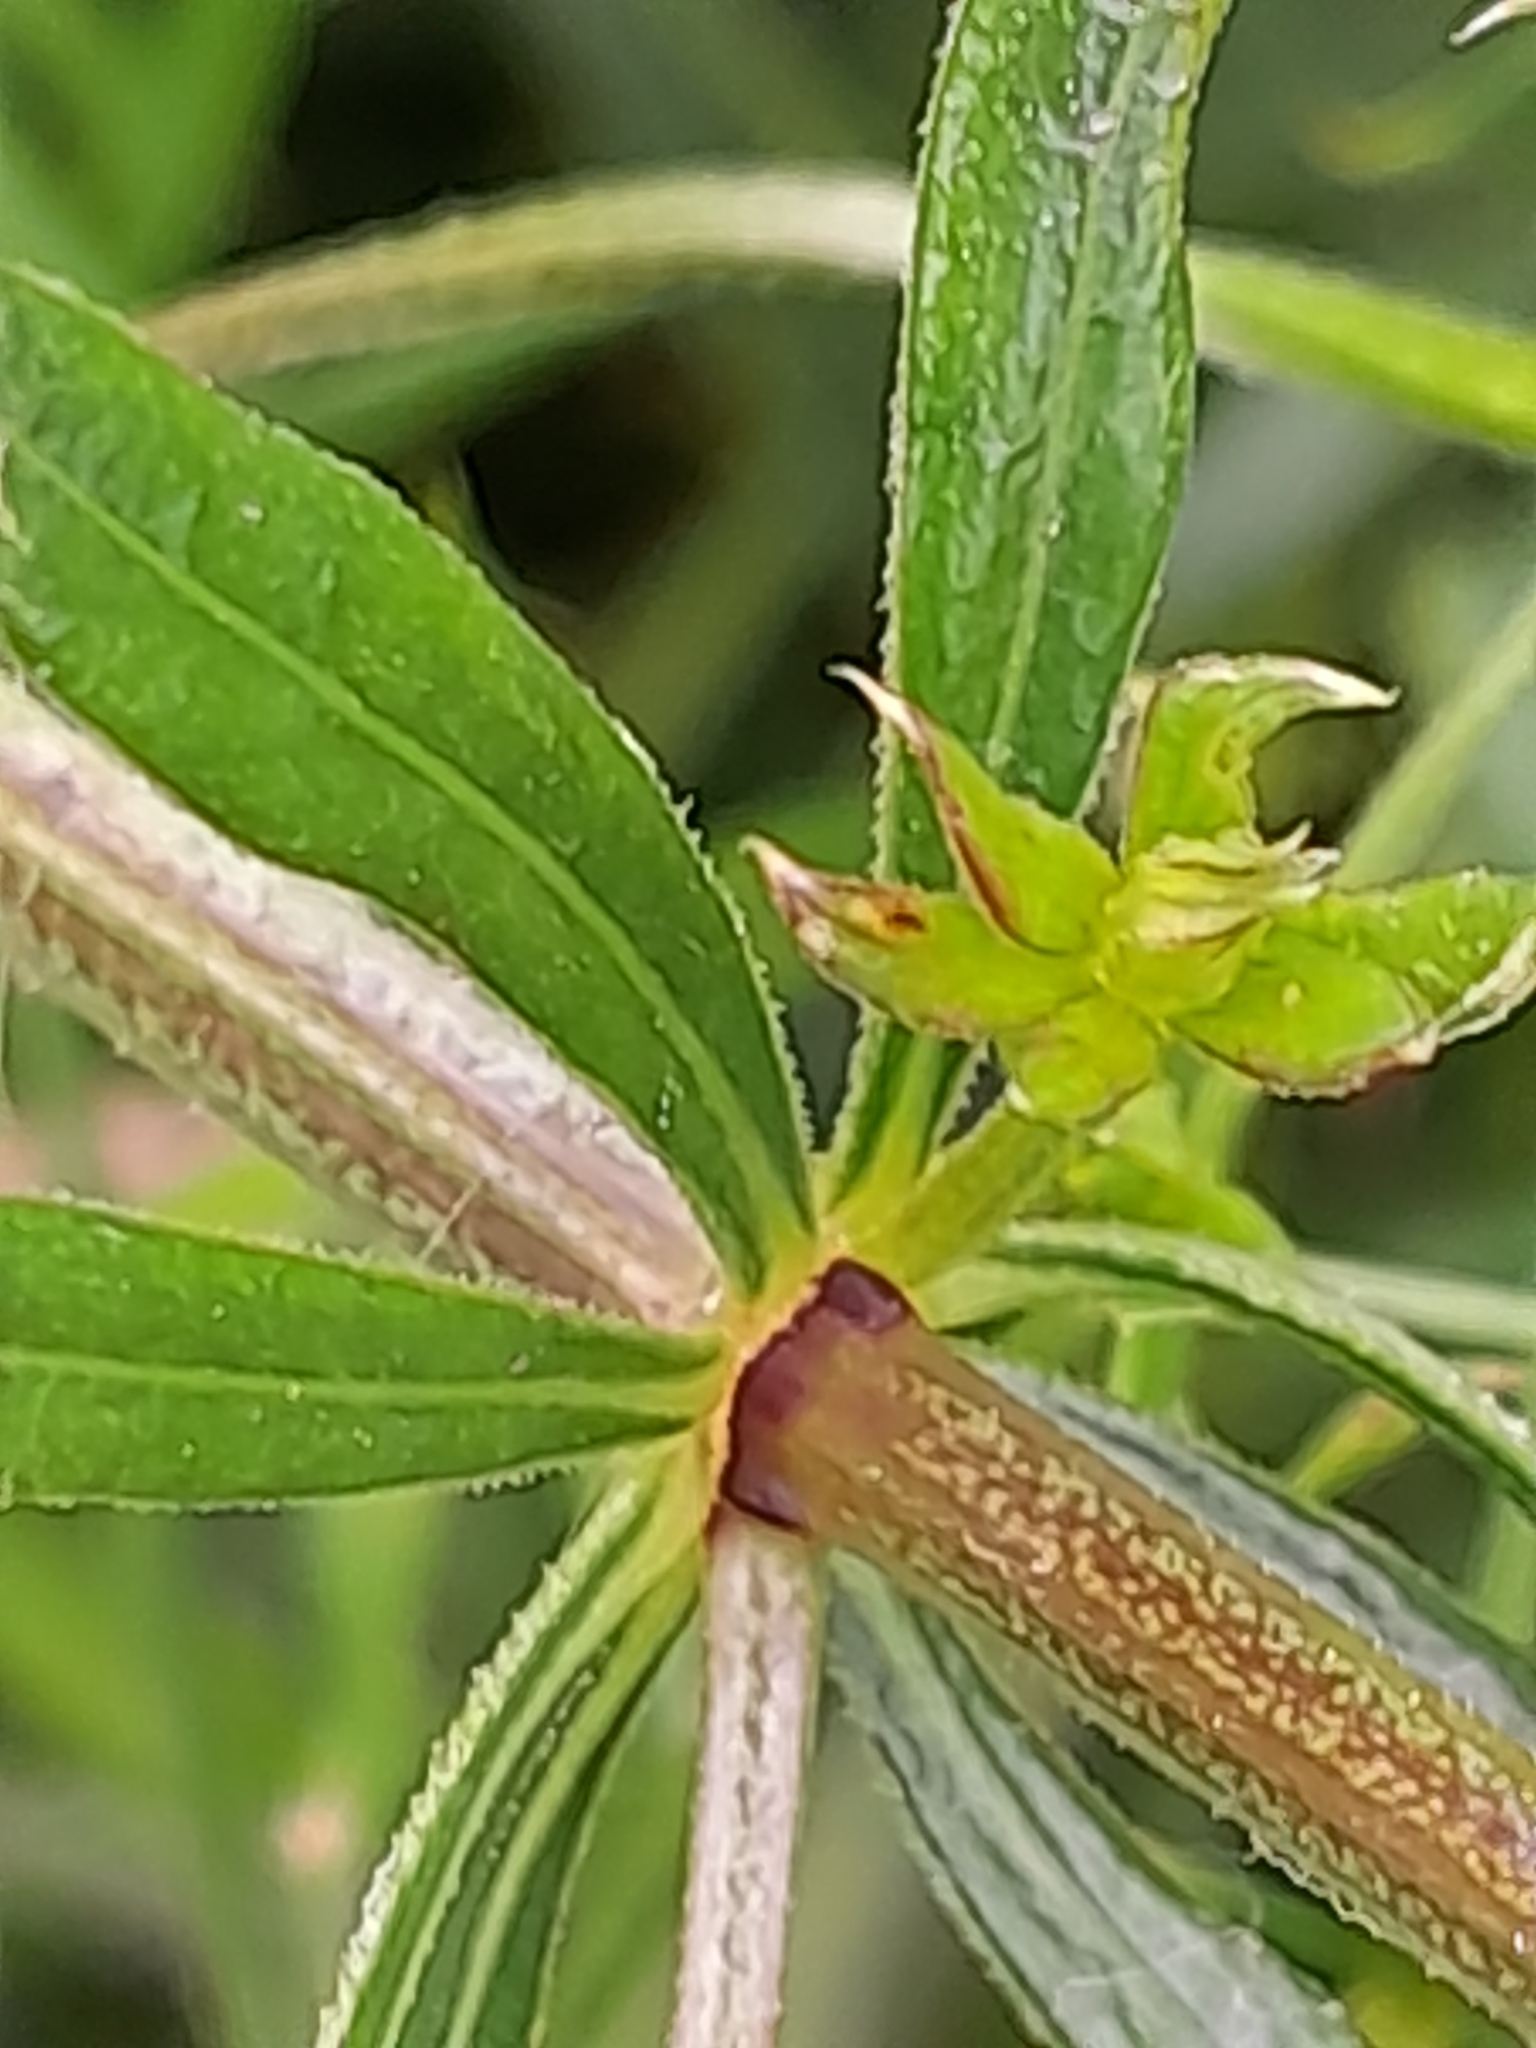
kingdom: Plantae
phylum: Tracheophyta
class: Magnoliopsida
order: Gentianales
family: Rubiaceae
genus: Galium
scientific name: Galium rivale
